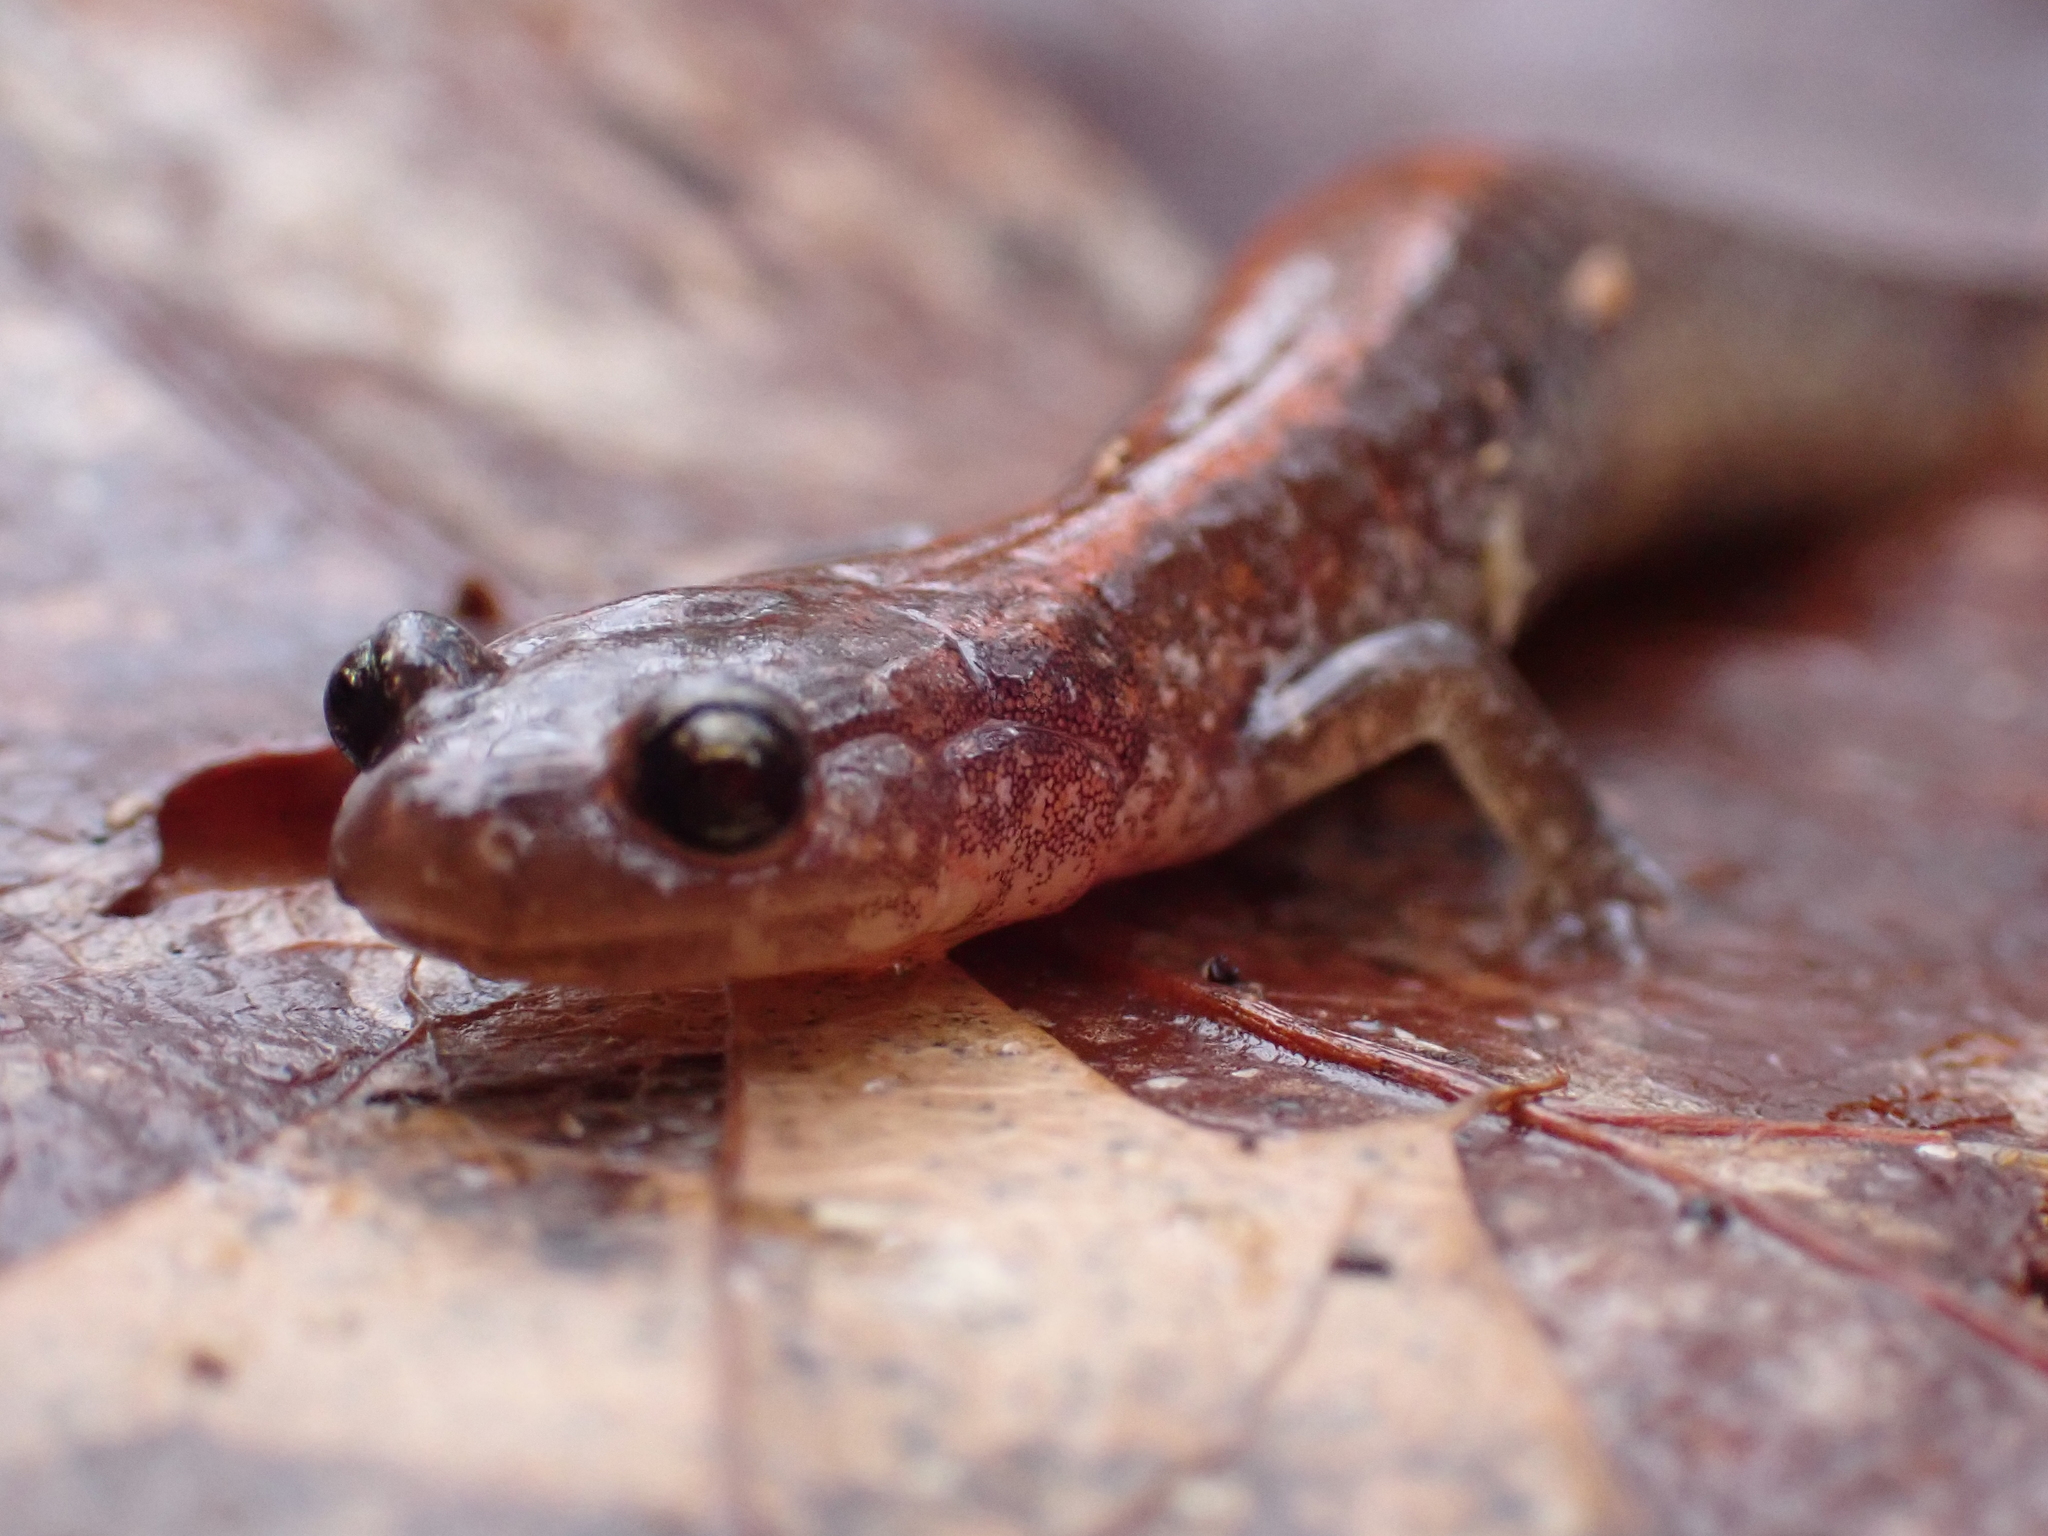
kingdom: Animalia
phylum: Chordata
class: Amphibia
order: Caudata
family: Plethodontidae
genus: Plethodon
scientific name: Plethodon cinereus
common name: Redback salamander
